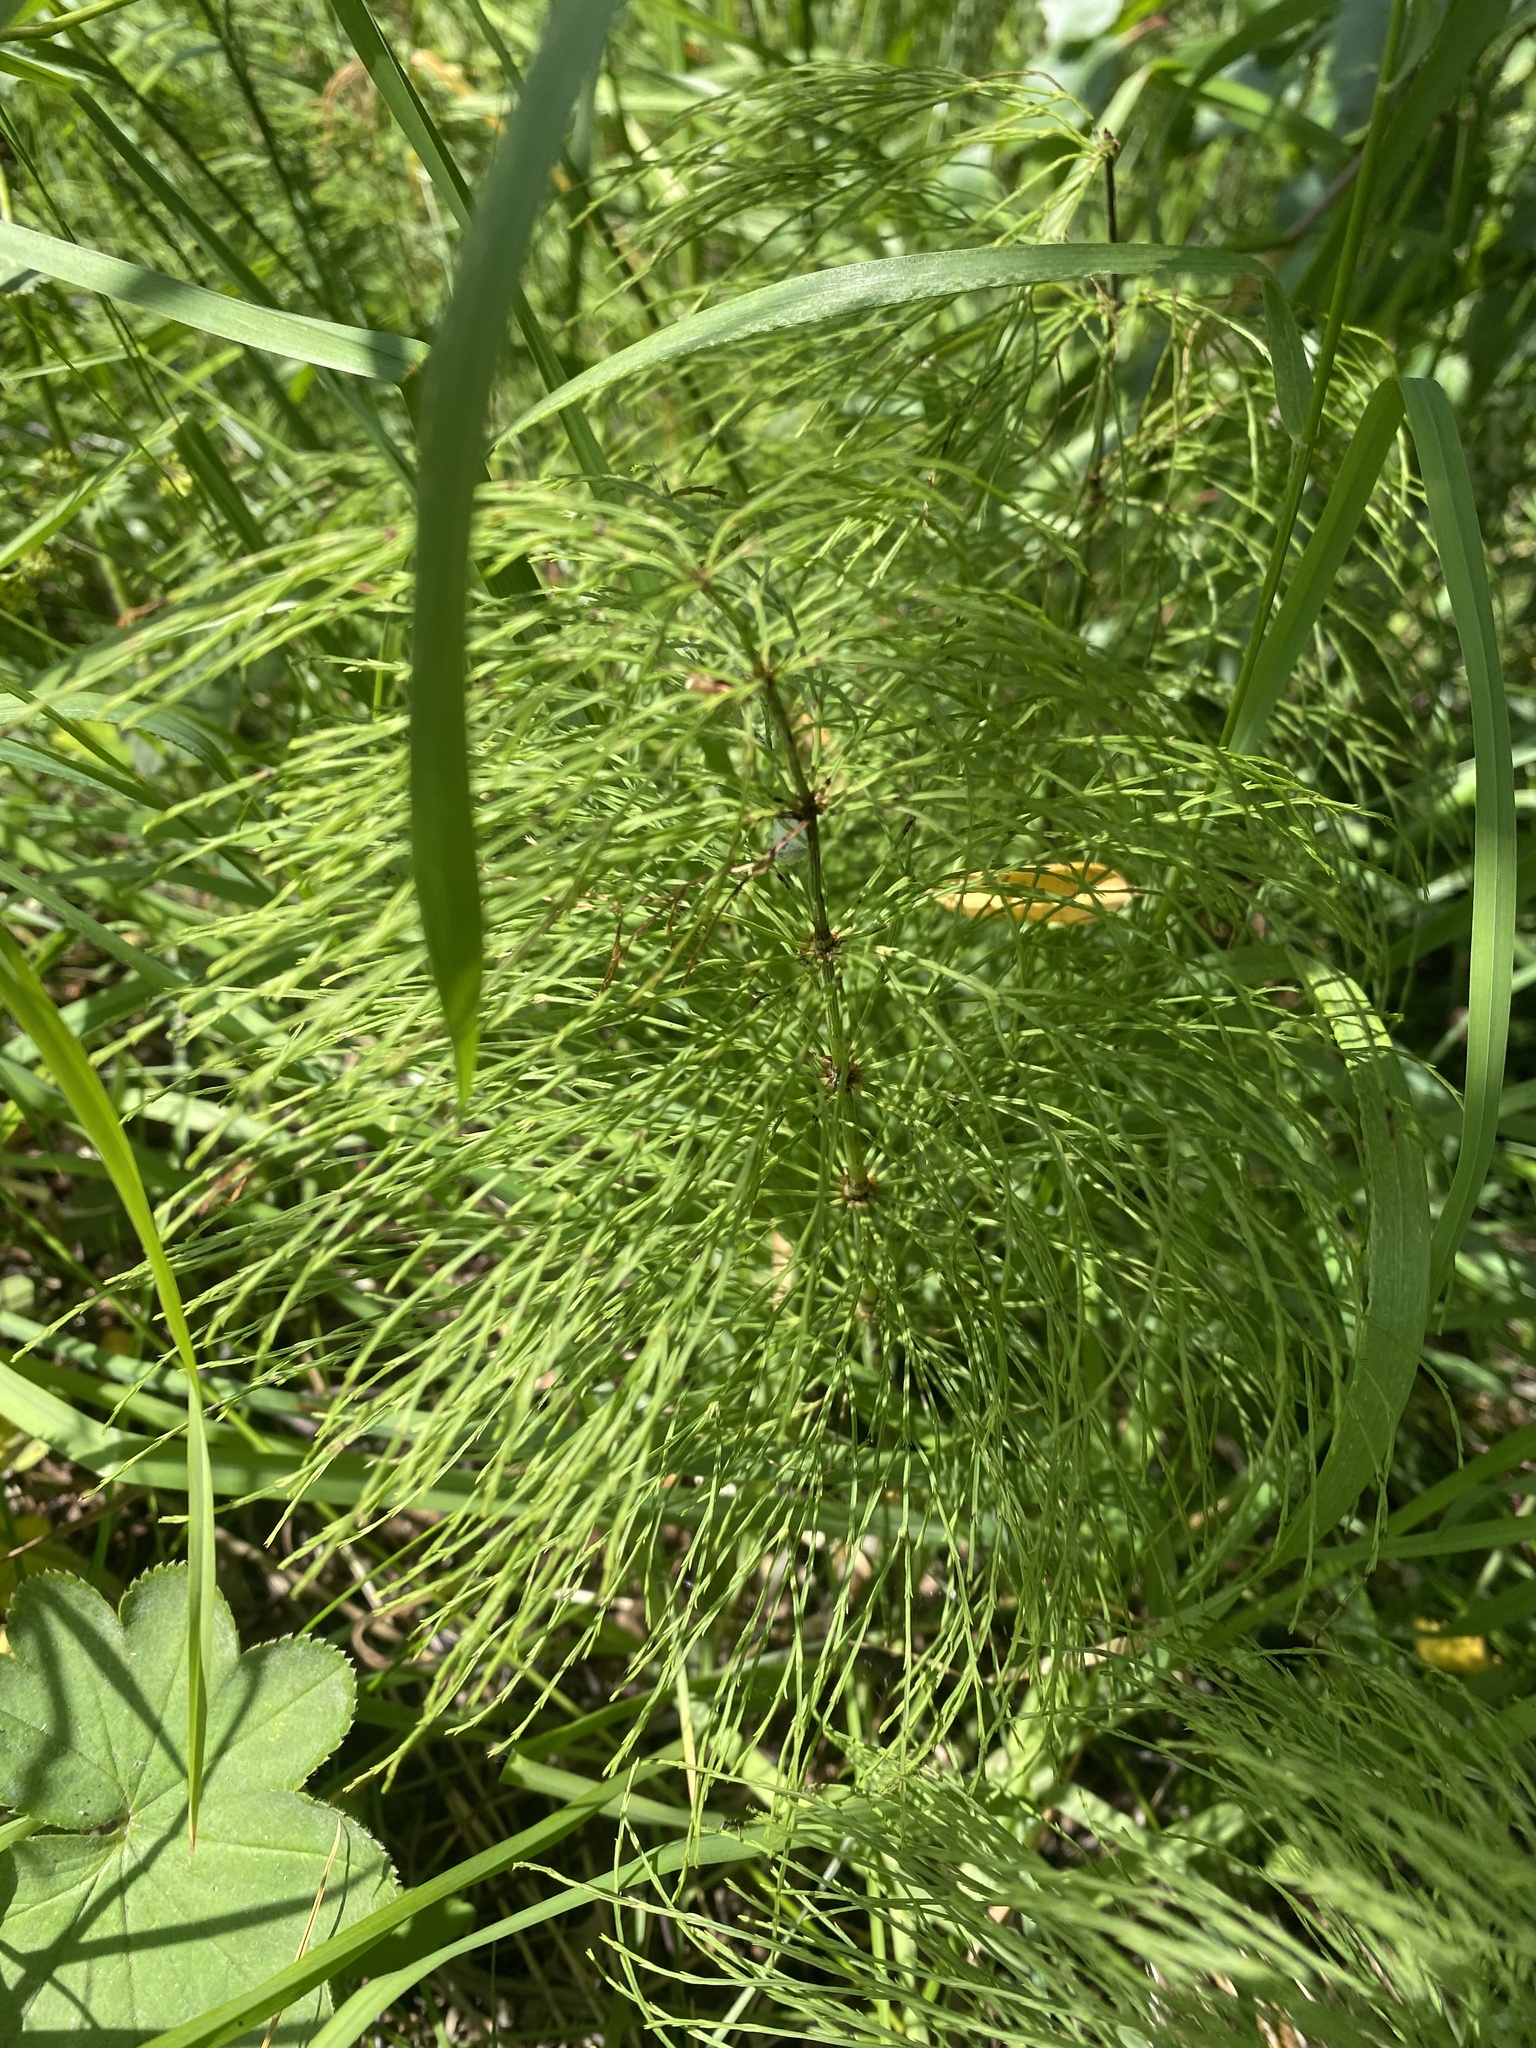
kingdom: Plantae
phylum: Tracheophyta
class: Polypodiopsida
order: Equisetales
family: Equisetaceae
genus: Equisetum
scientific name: Equisetum sylvaticum
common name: Wood horsetail
